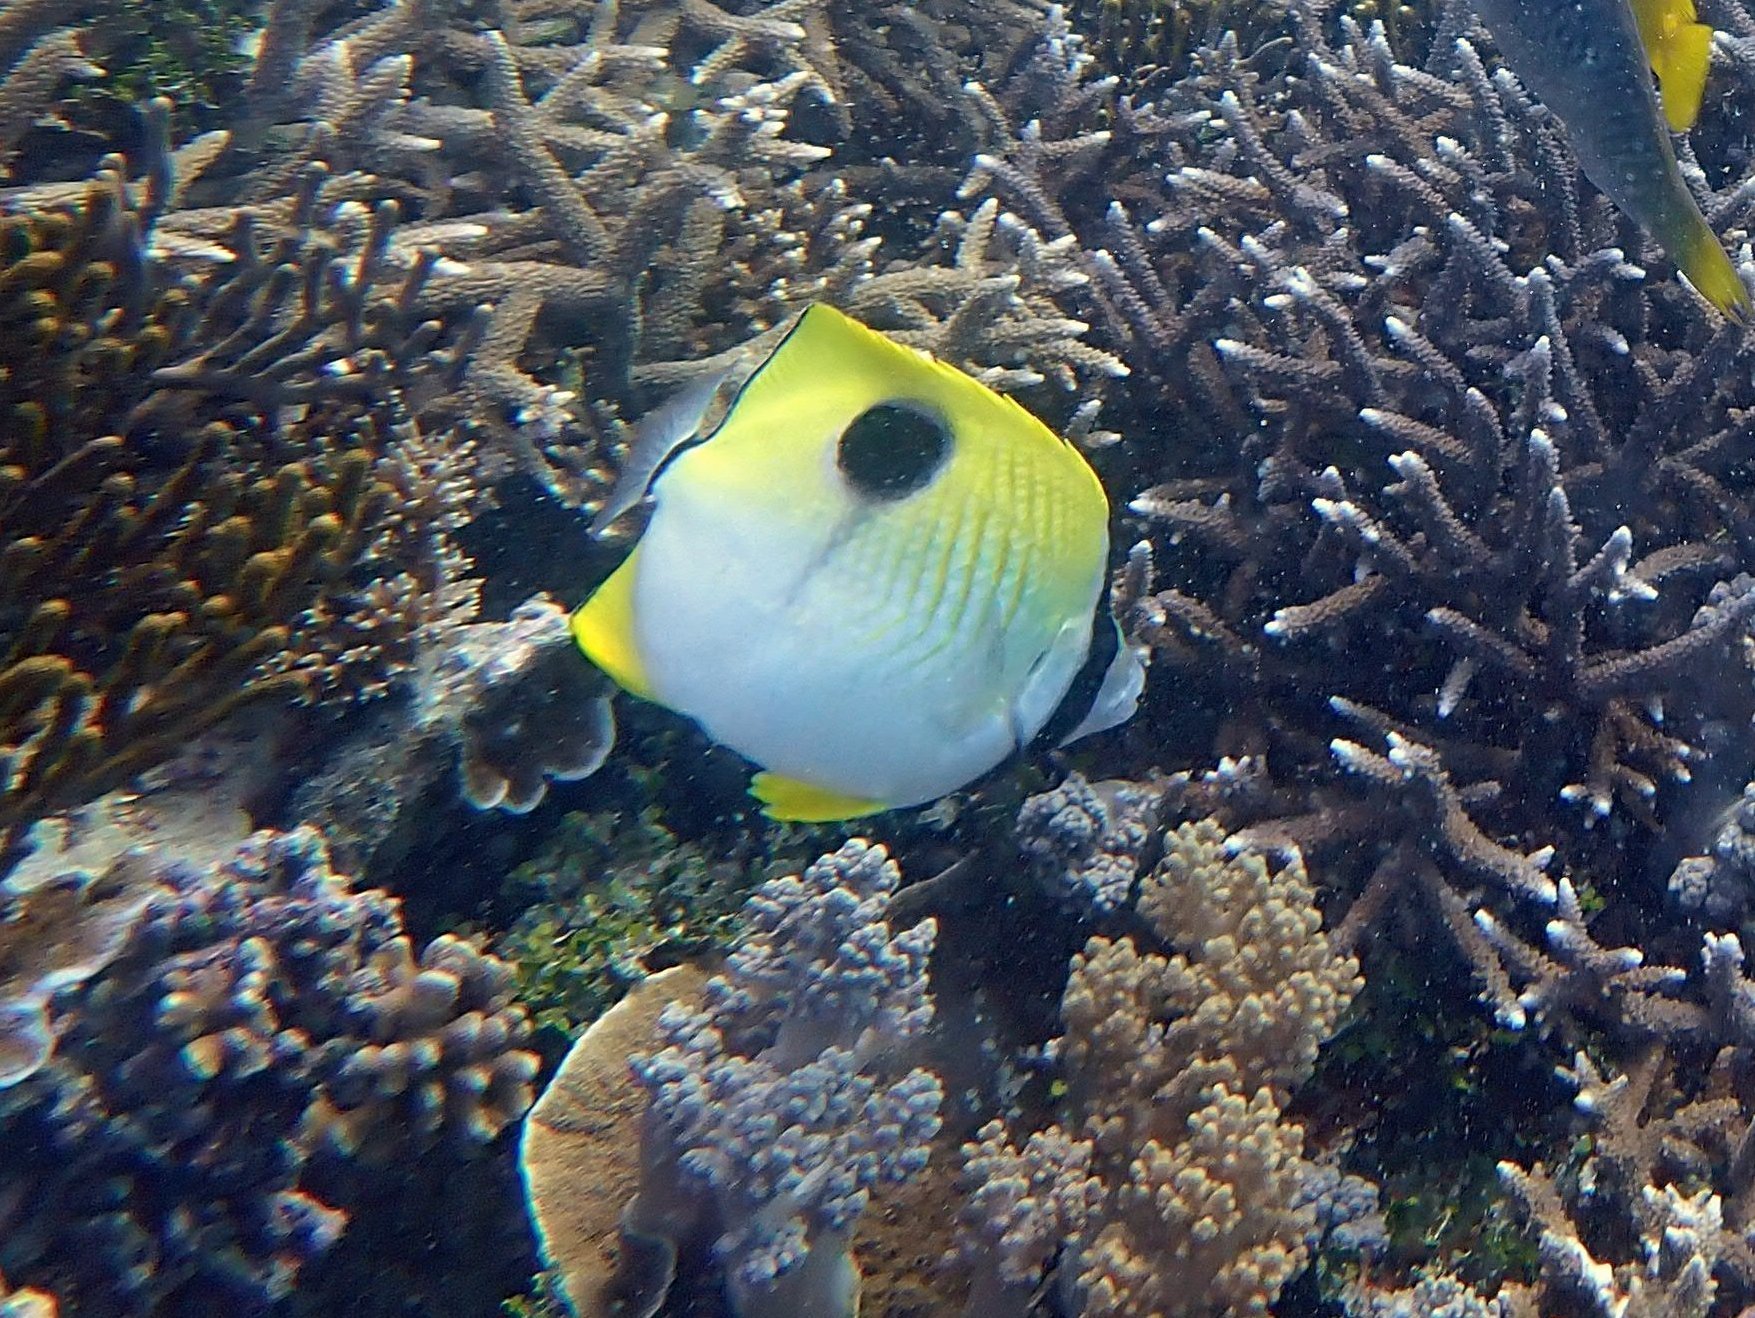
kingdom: Animalia
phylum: Chordata
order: Perciformes
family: Chaetodontidae
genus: Chaetodon
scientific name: Chaetodon unimaculatus
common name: Teardrop butterflyfish
